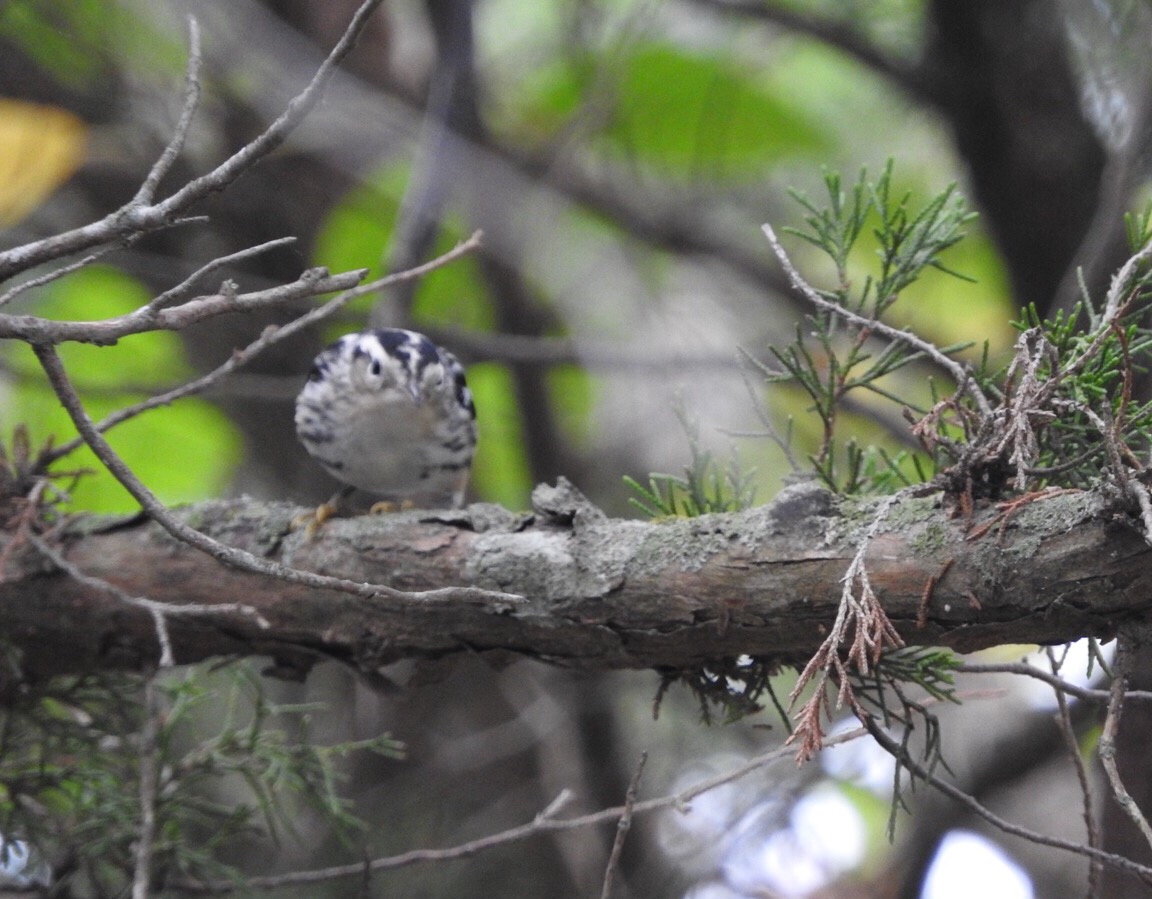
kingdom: Animalia
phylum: Chordata
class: Aves
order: Passeriformes
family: Parulidae
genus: Mniotilta
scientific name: Mniotilta varia
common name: Black-and-white warbler
